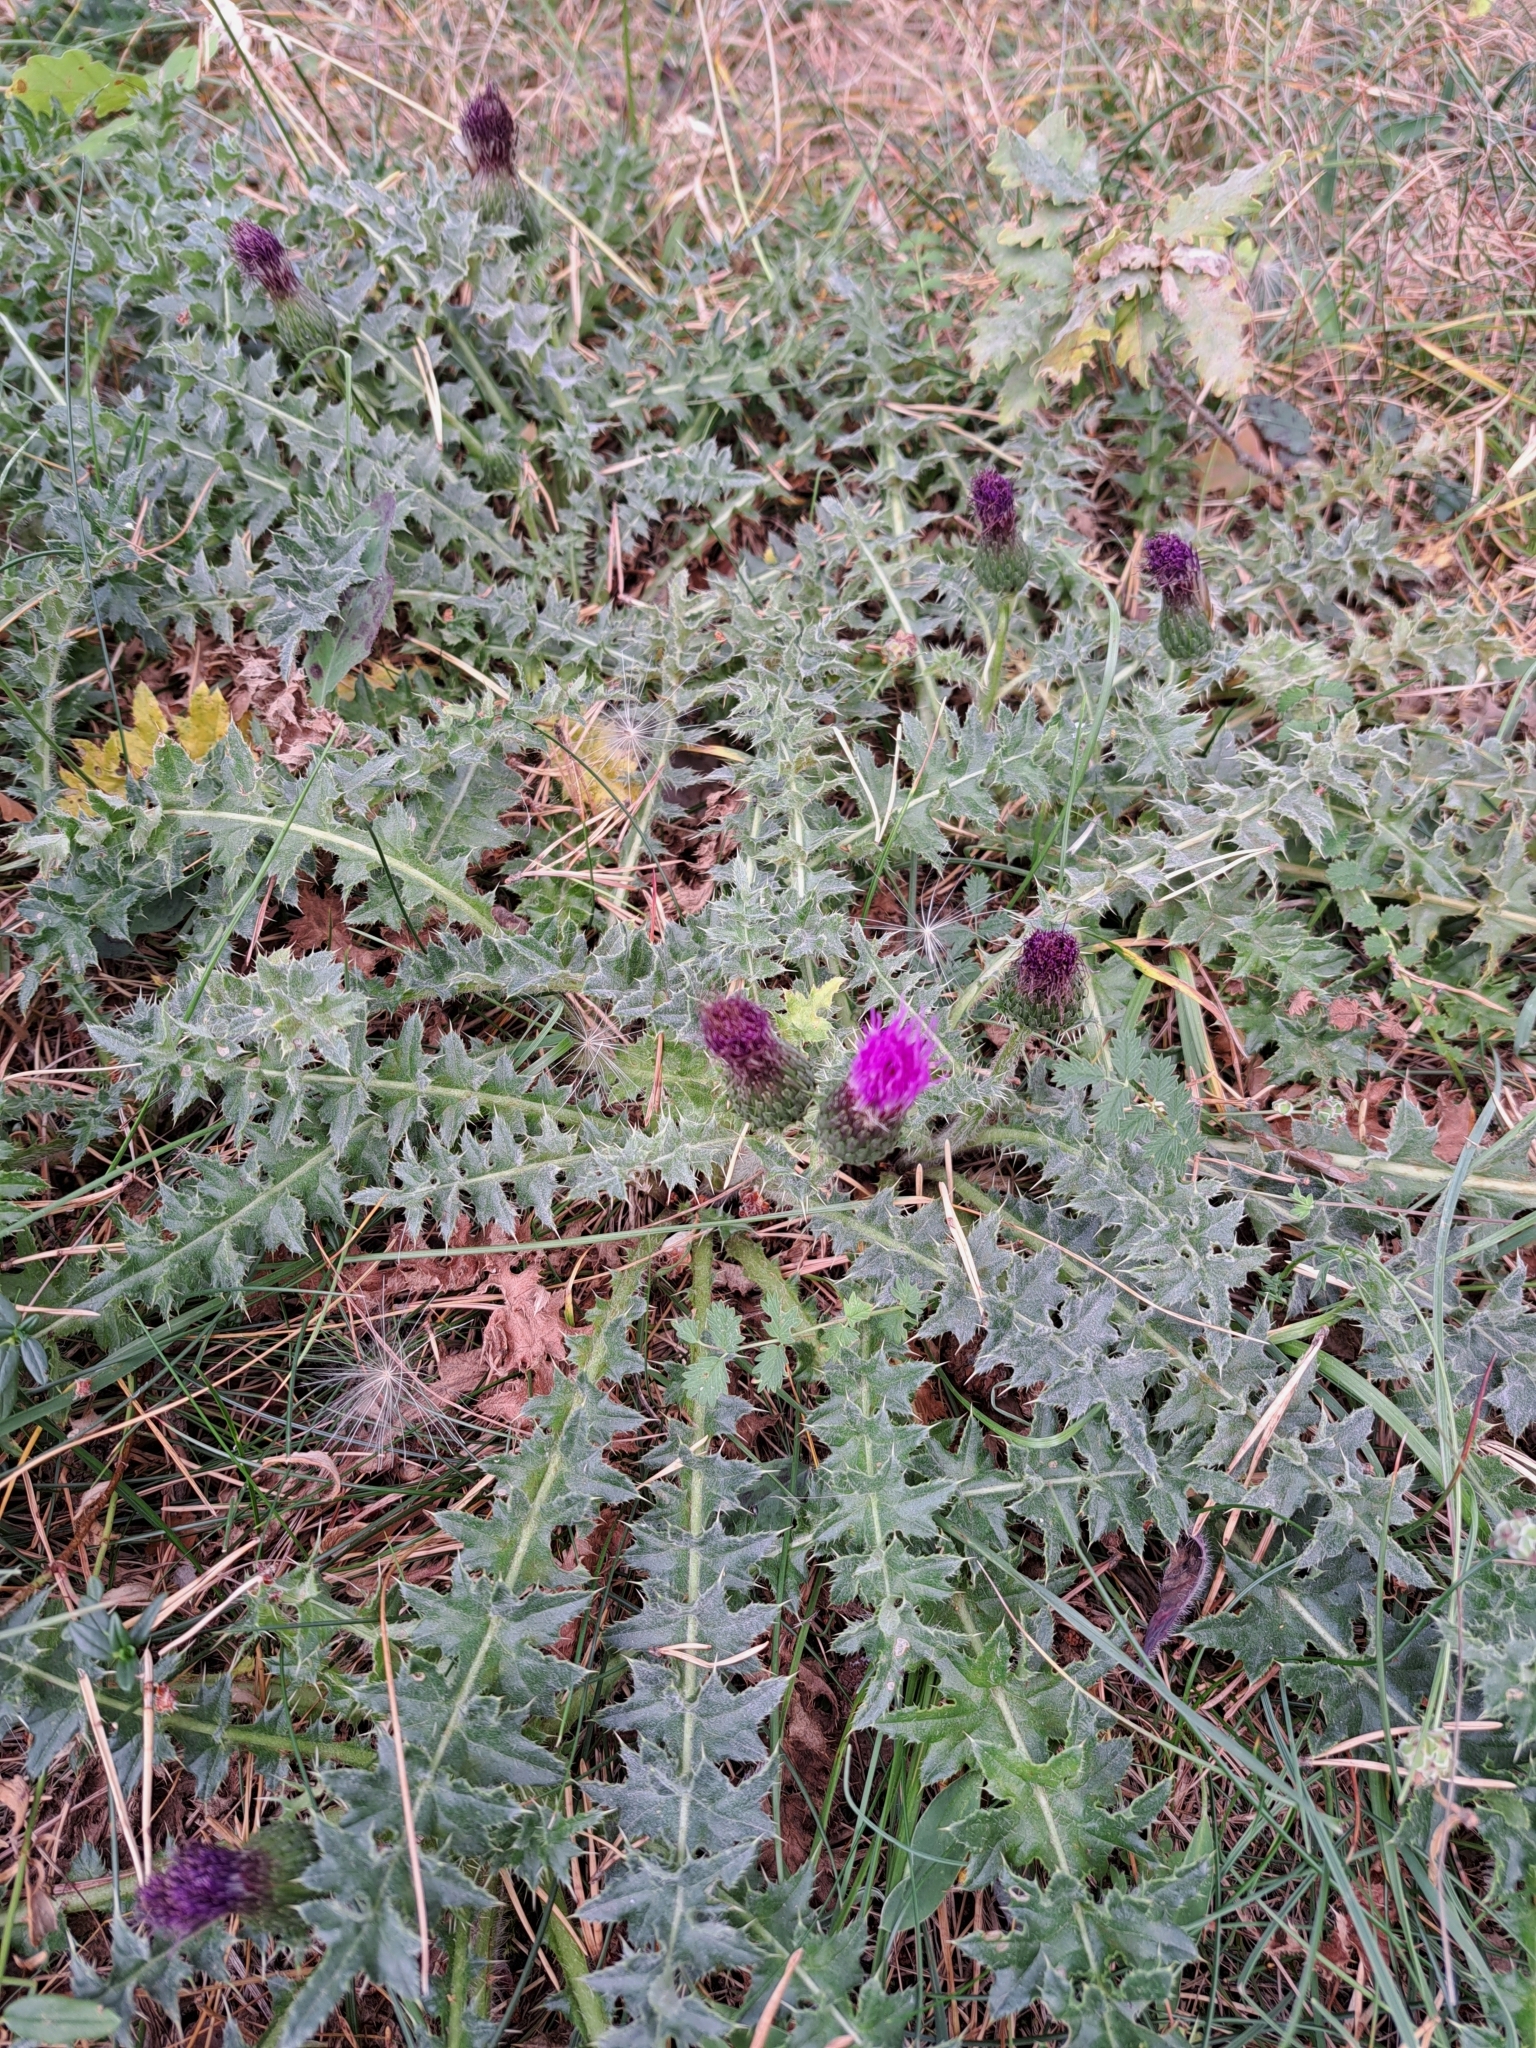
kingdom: Plantae
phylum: Tracheophyta
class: Magnoliopsida
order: Asterales
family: Asteraceae
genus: Cirsium
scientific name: Cirsium acaulon
